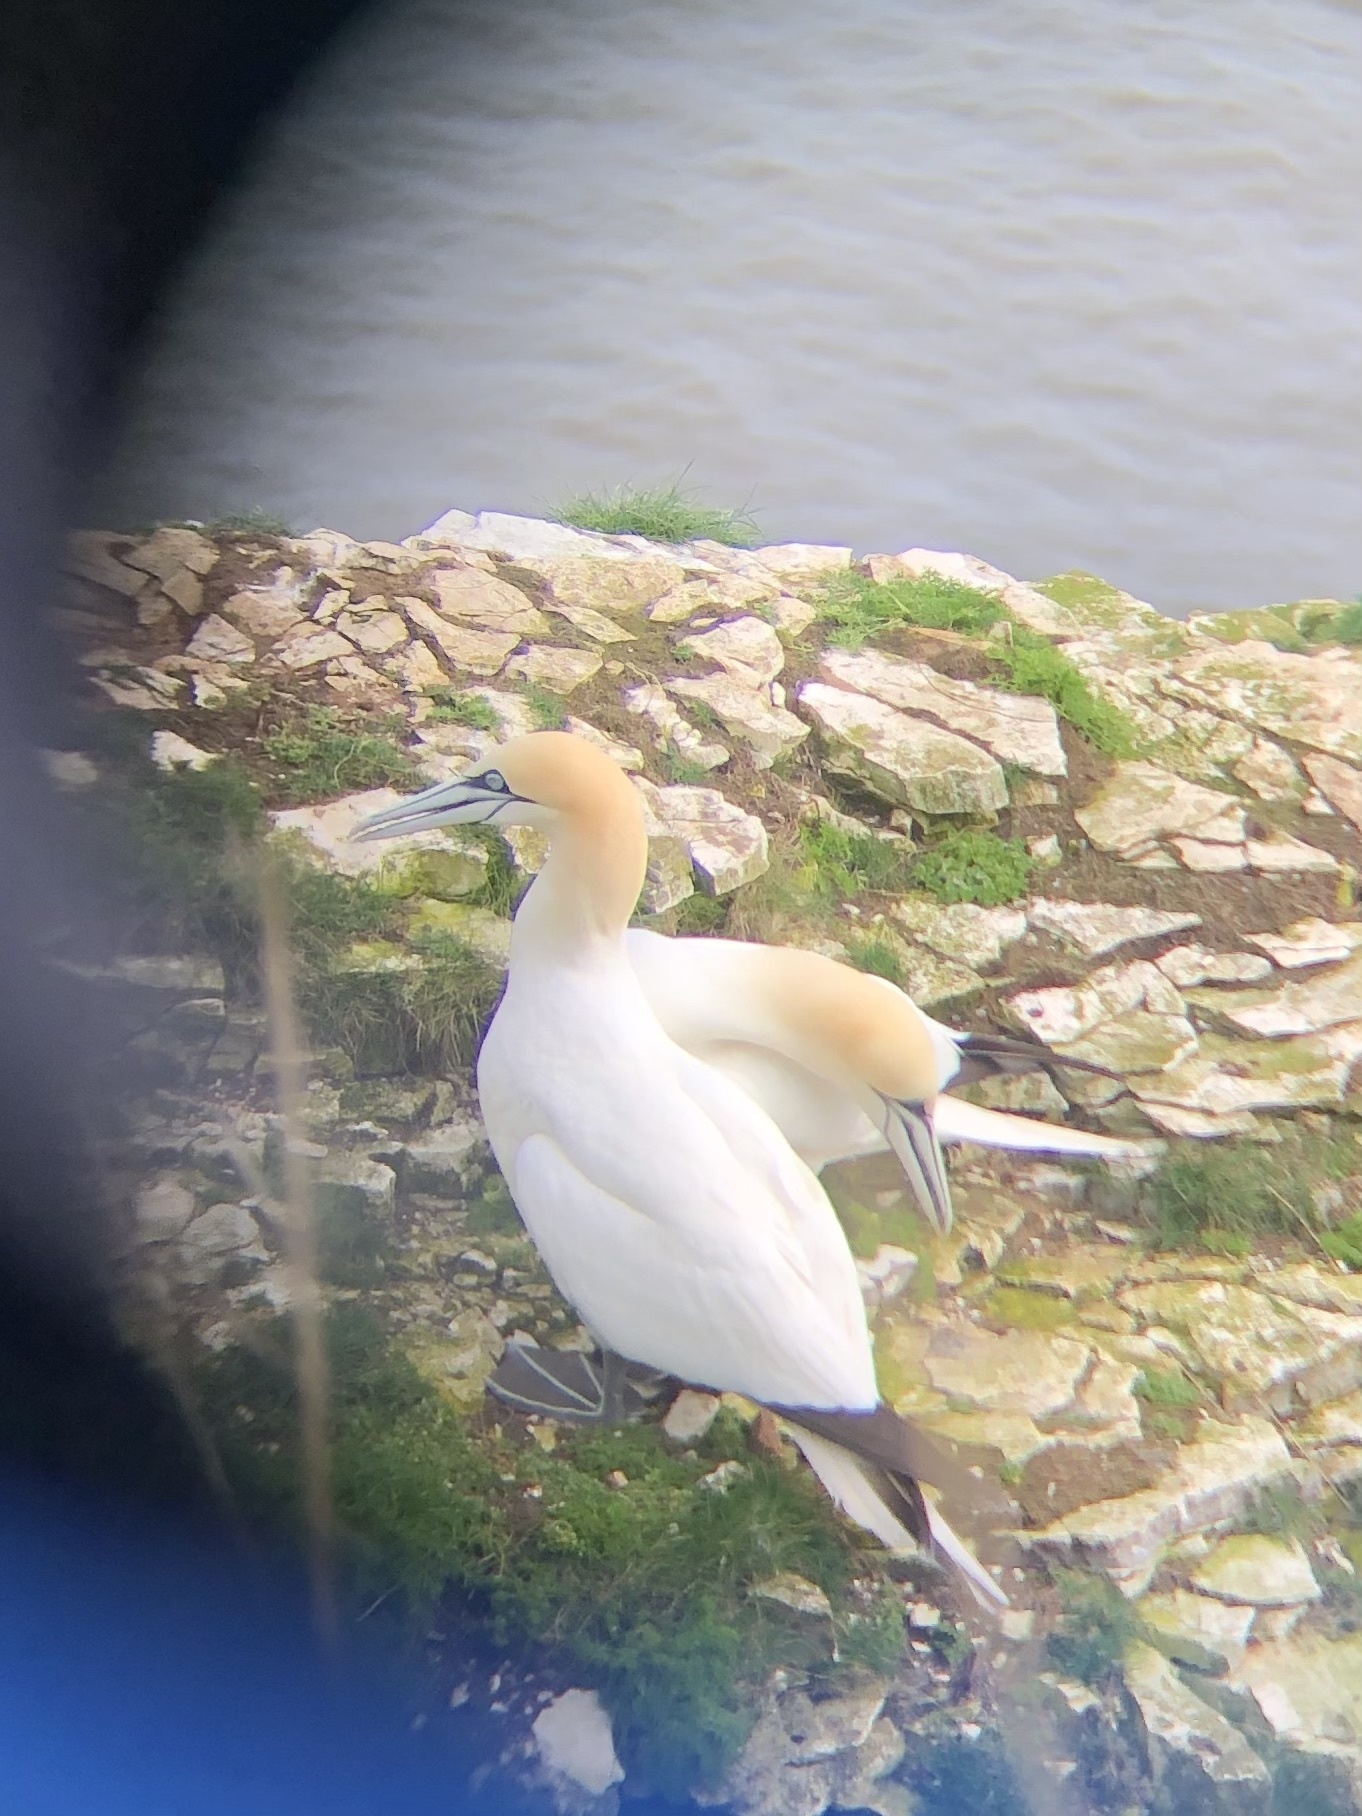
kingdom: Animalia
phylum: Chordata
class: Aves
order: Suliformes
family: Sulidae
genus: Morus
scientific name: Morus bassanus
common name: Northern gannet
